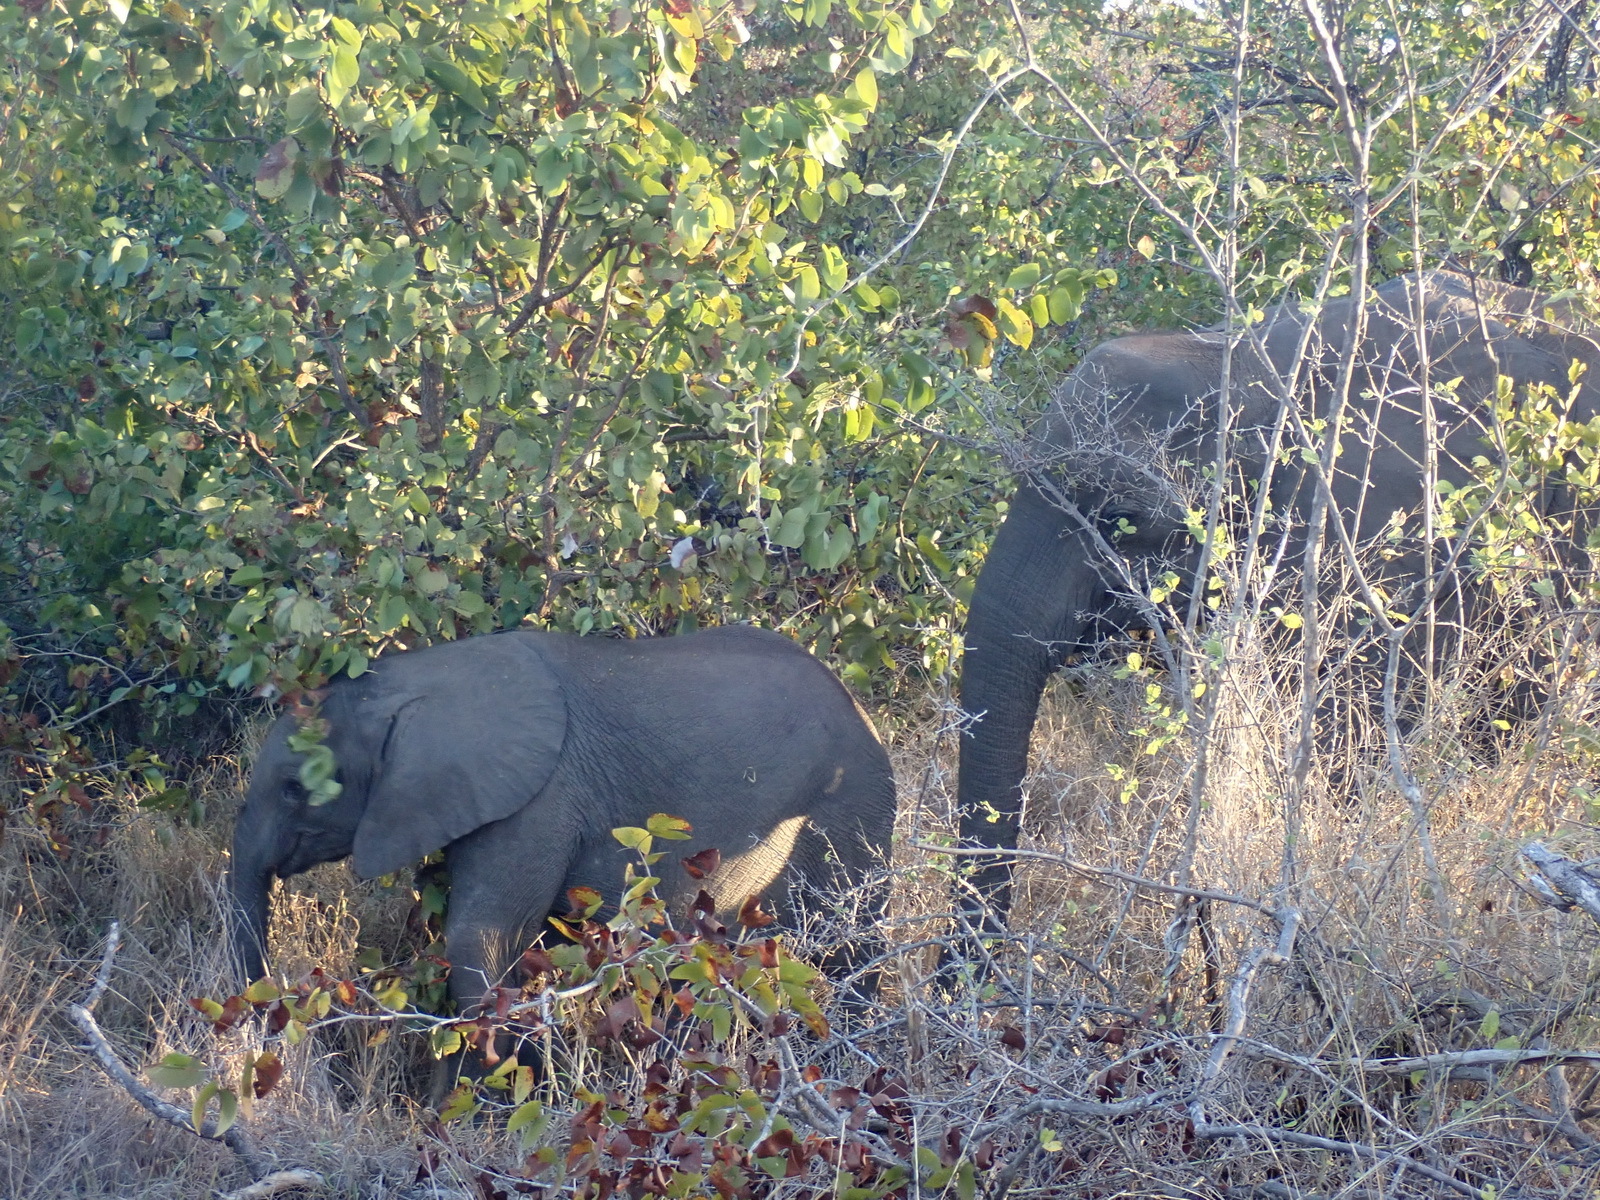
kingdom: Animalia
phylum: Chordata
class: Mammalia
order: Proboscidea
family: Elephantidae
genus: Loxodonta
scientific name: Loxodonta africana
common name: African elephant
